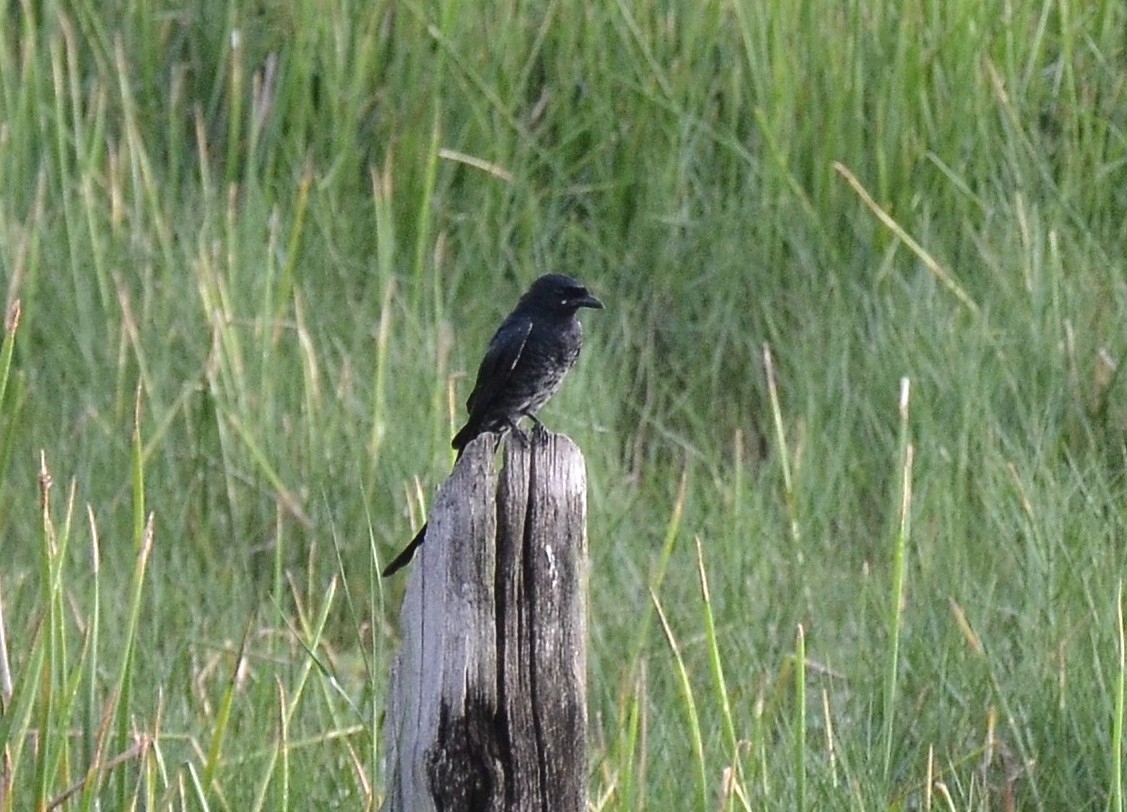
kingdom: Animalia
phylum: Chordata
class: Aves
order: Passeriformes
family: Dicruridae
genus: Dicrurus
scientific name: Dicrurus macrocercus
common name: Black drongo
